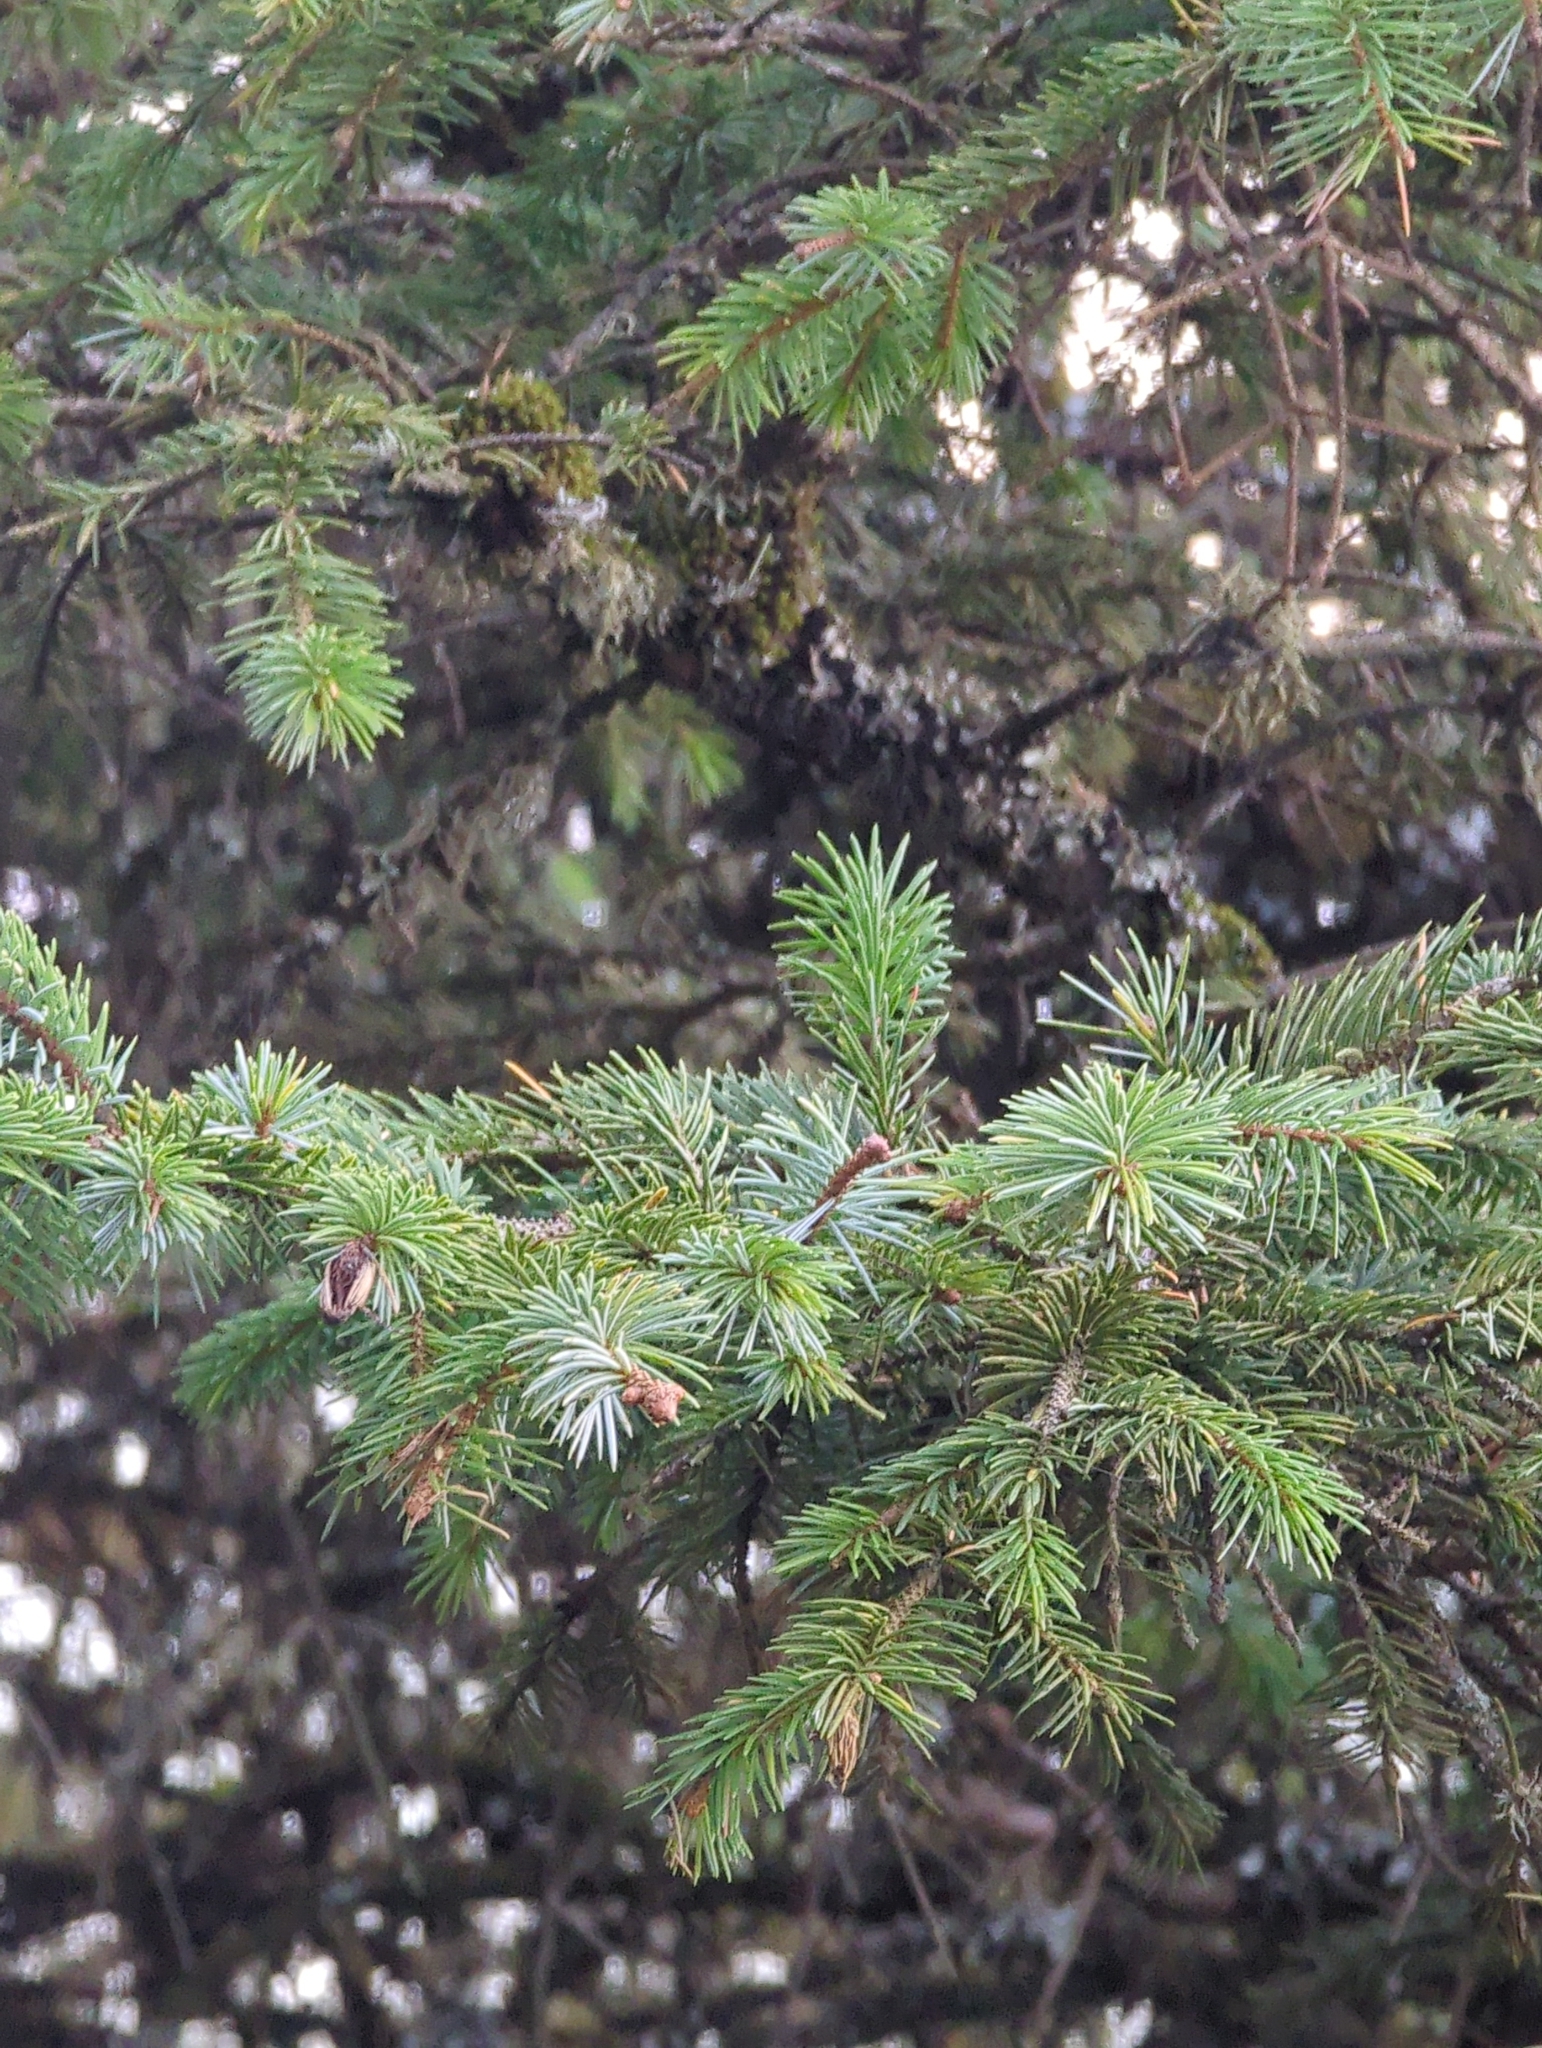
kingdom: Plantae
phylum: Tracheophyta
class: Pinopsida
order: Pinales
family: Pinaceae
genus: Picea
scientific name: Picea sitchensis
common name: Sitka spruce
